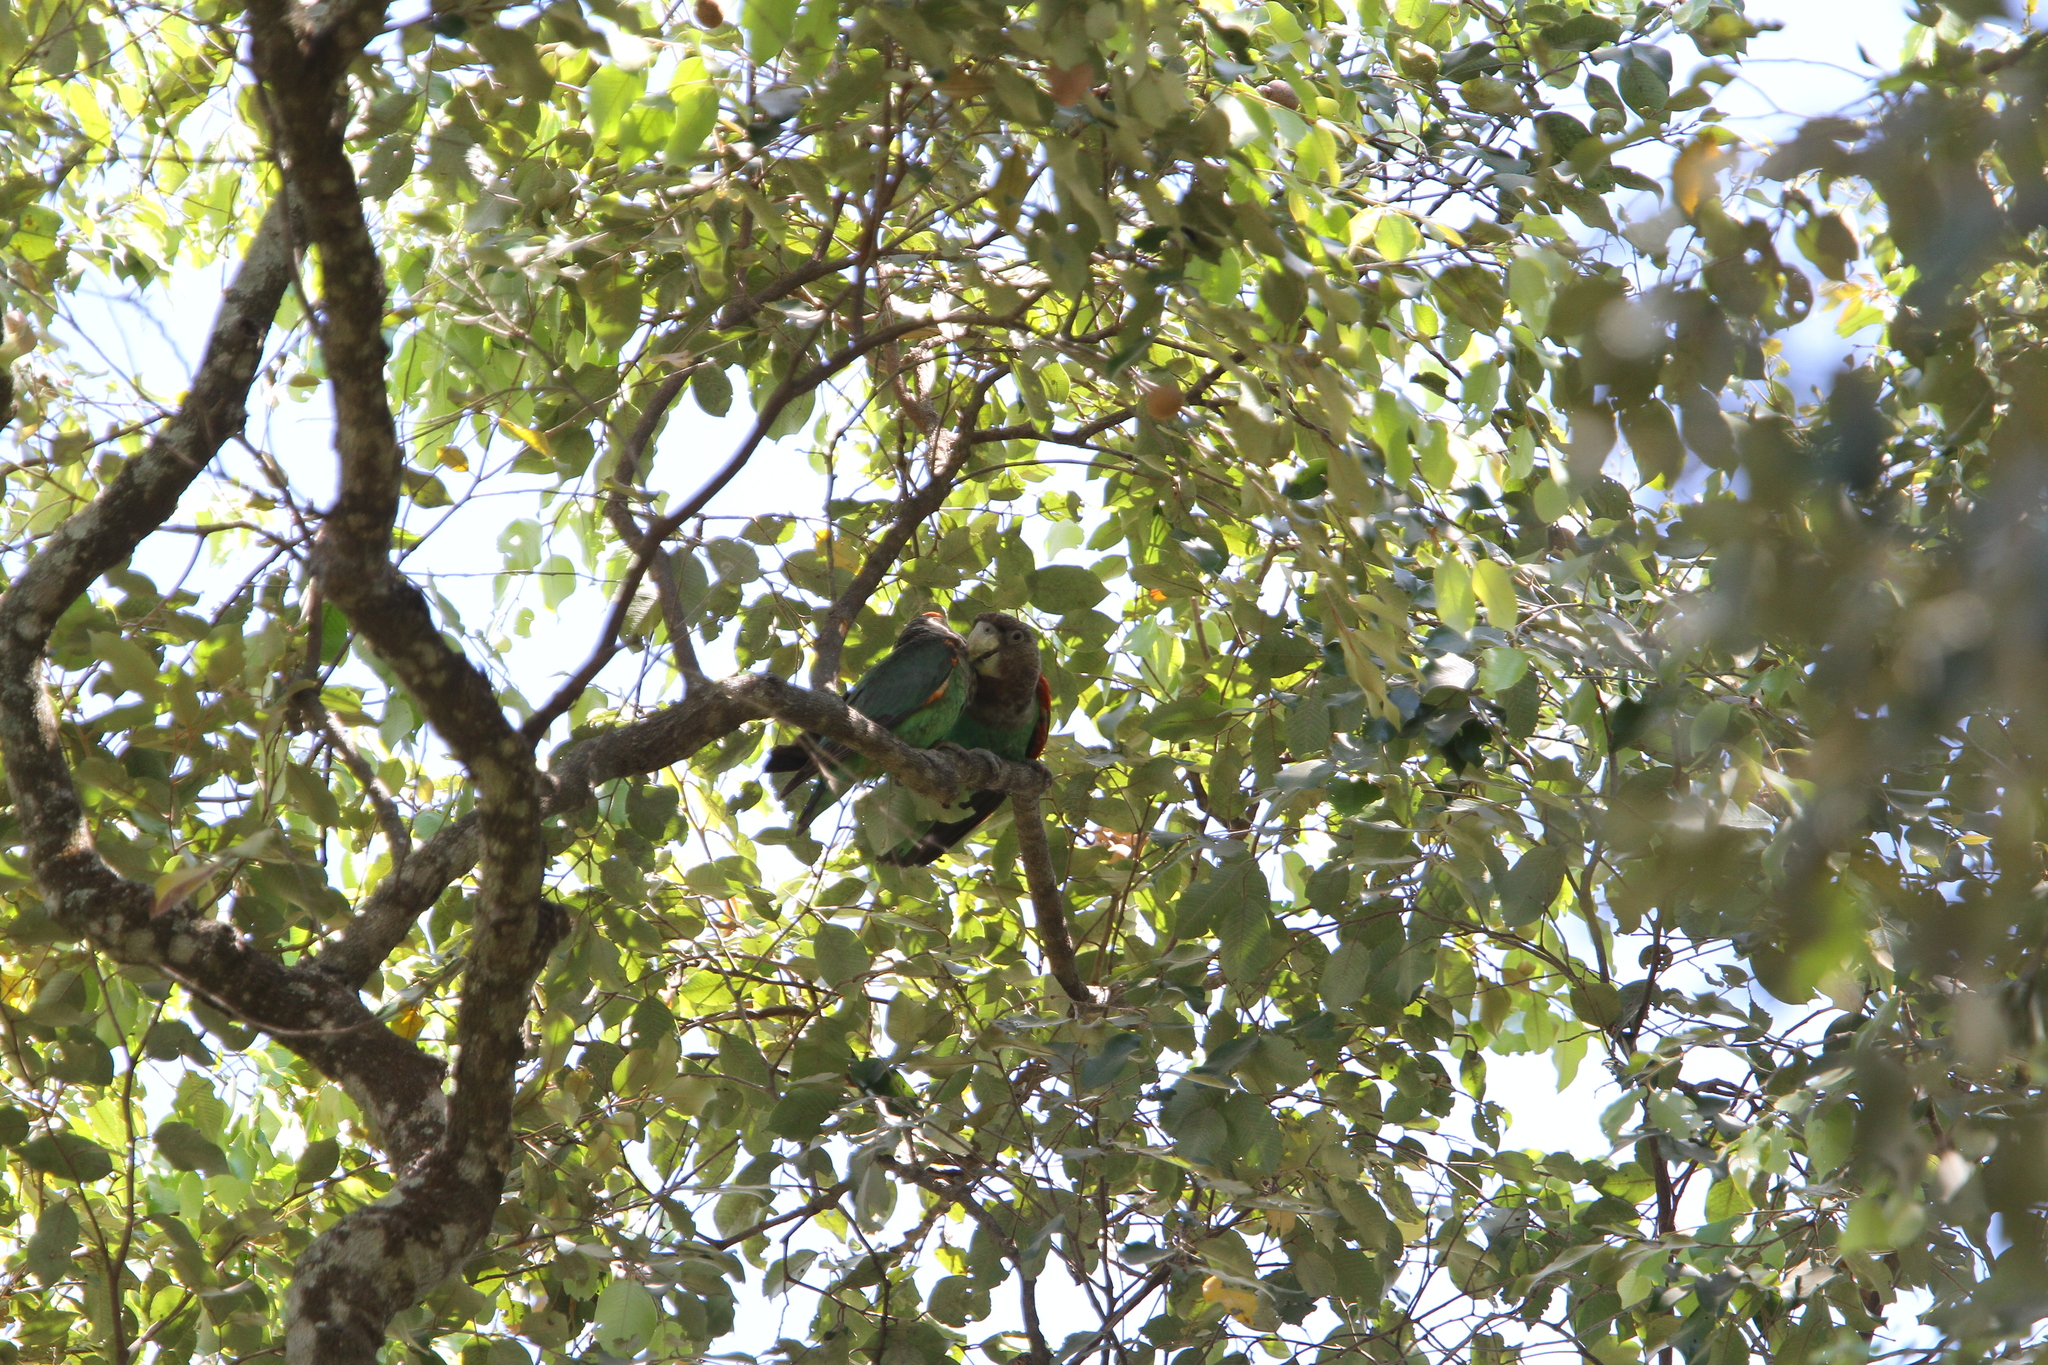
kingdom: Animalia
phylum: Chordata
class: Aves
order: Psittaciformes
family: Psittacidae
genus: Poicephalus
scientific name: Poicephalus robustus
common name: Cape parrot
